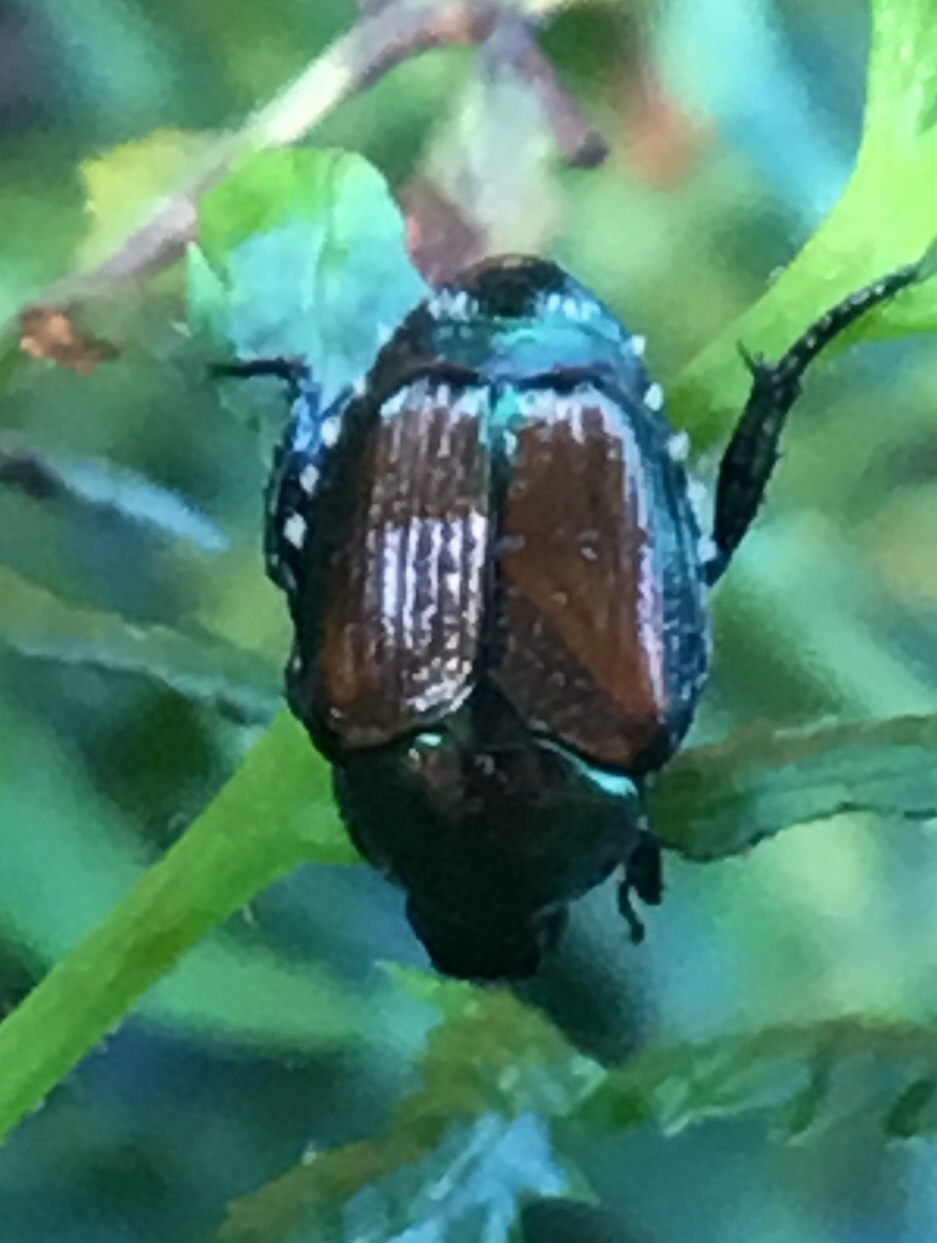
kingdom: Animalia
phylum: Arthropoda
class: Insecta
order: Coleoptera
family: Scarabaeidae
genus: Popillia
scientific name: Popillia japonica
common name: Japanese beetle
